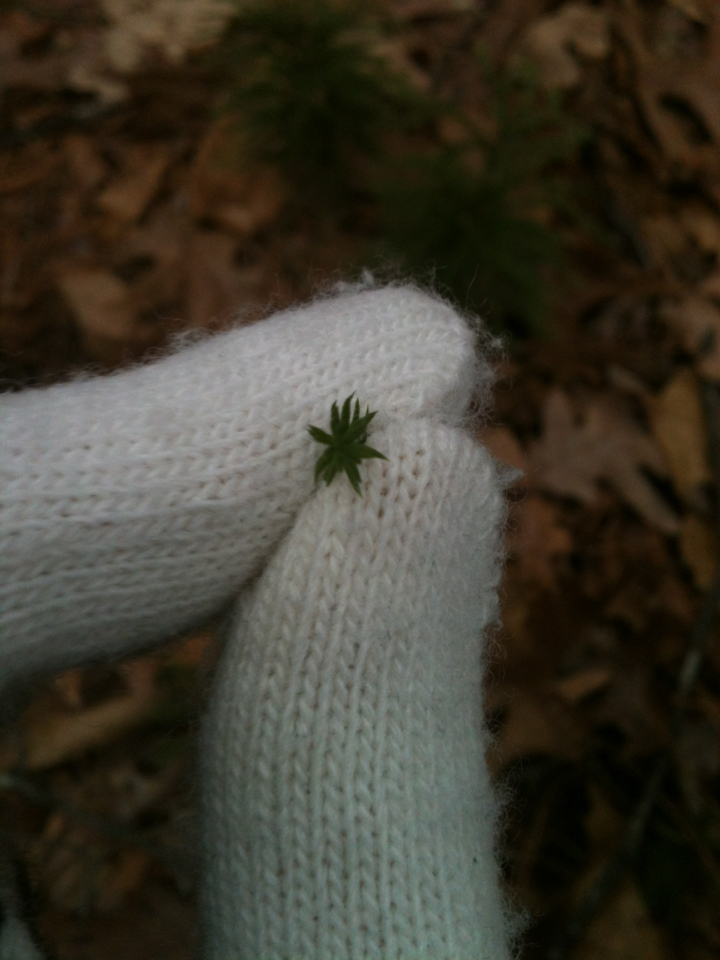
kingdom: Plantae
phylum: Tracheophyta
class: Lycopodiopsida
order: Lycopodiales
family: Lycopodiaceae
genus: Dendrolycopodium
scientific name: Dendrolycopodium dendroideum
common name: Northern tree-clubmoss
